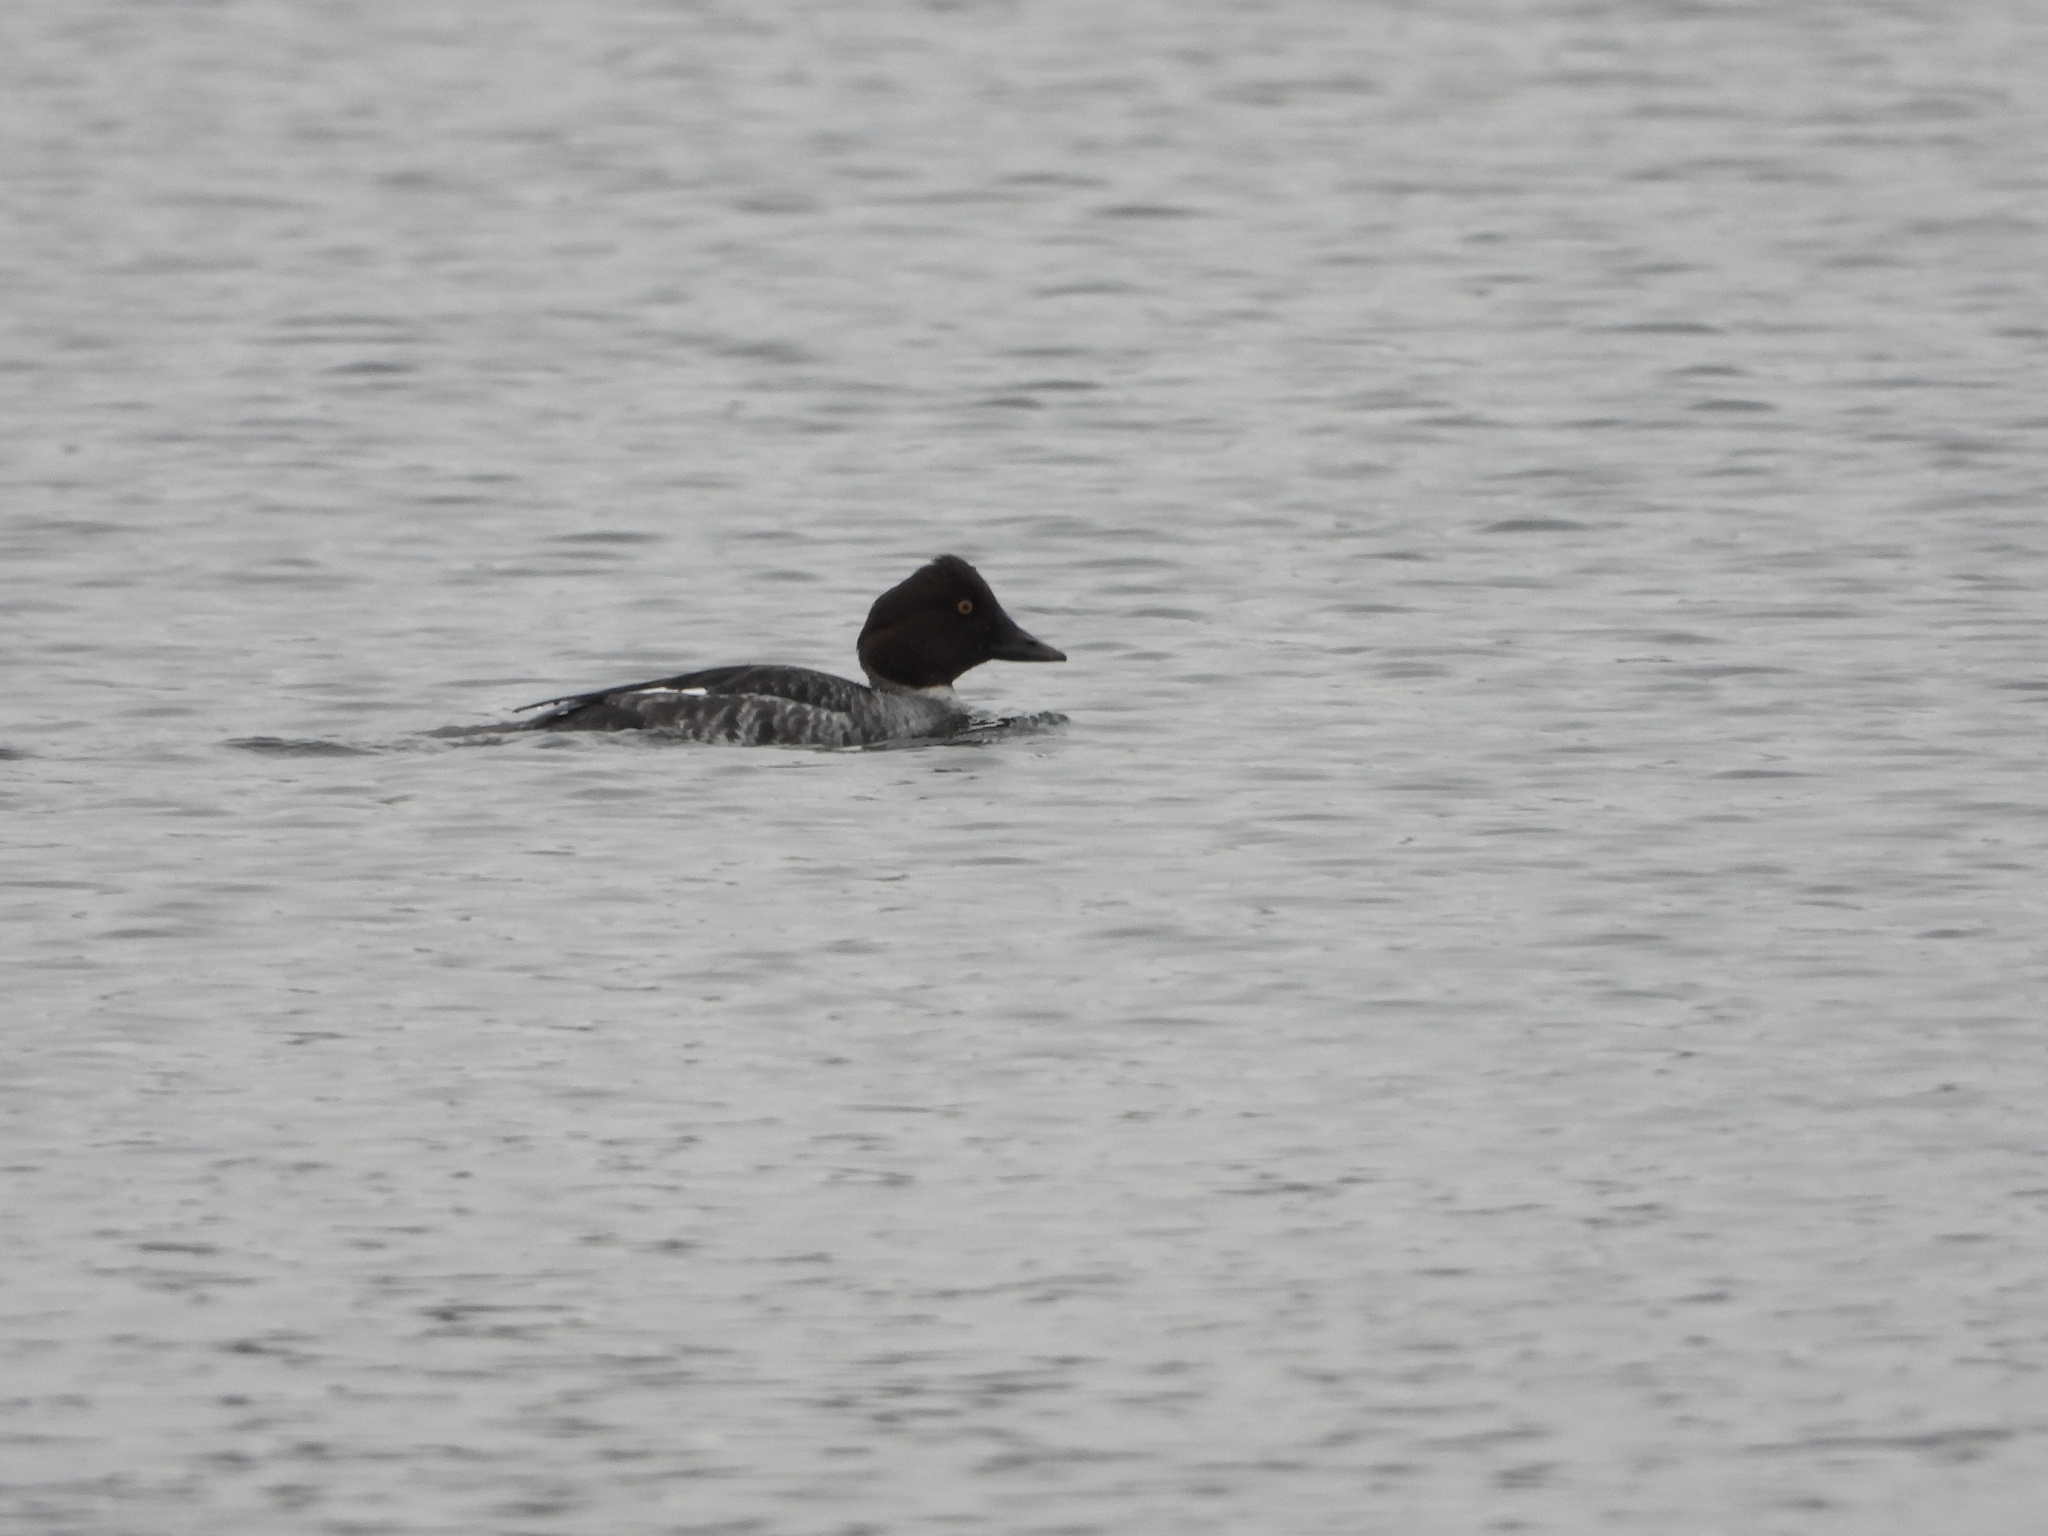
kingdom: Animalia
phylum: Chordata
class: Aves
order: Anseriformes
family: Anatidae
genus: Bucephala
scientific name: Bucephala clangula
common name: Common goldeneye
